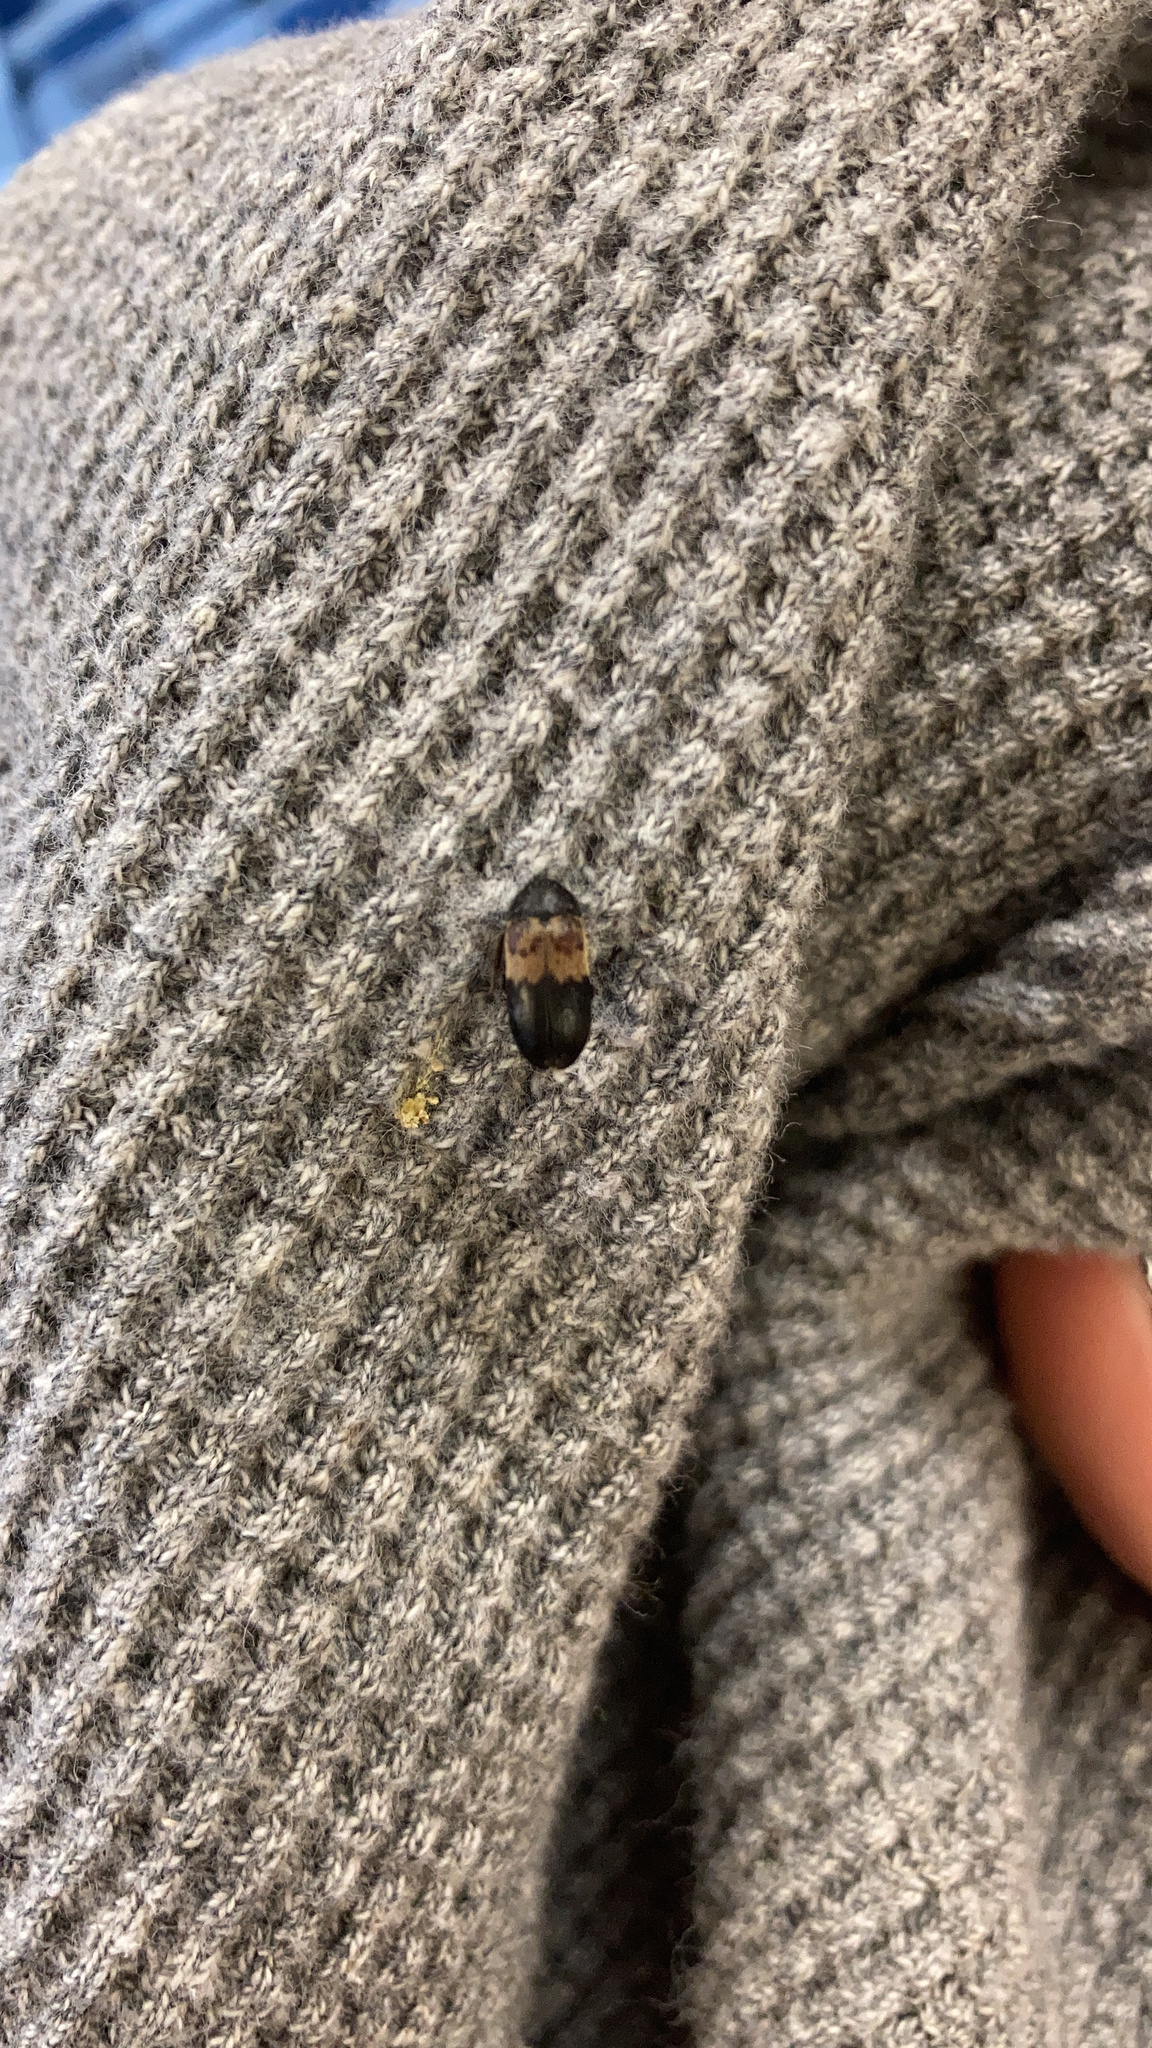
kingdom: Animalia
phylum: Arthropoda
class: Insecta
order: Coleoptera
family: Dermestidae
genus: Dermestes
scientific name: Dermestes lardarius
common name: Larder beetle
